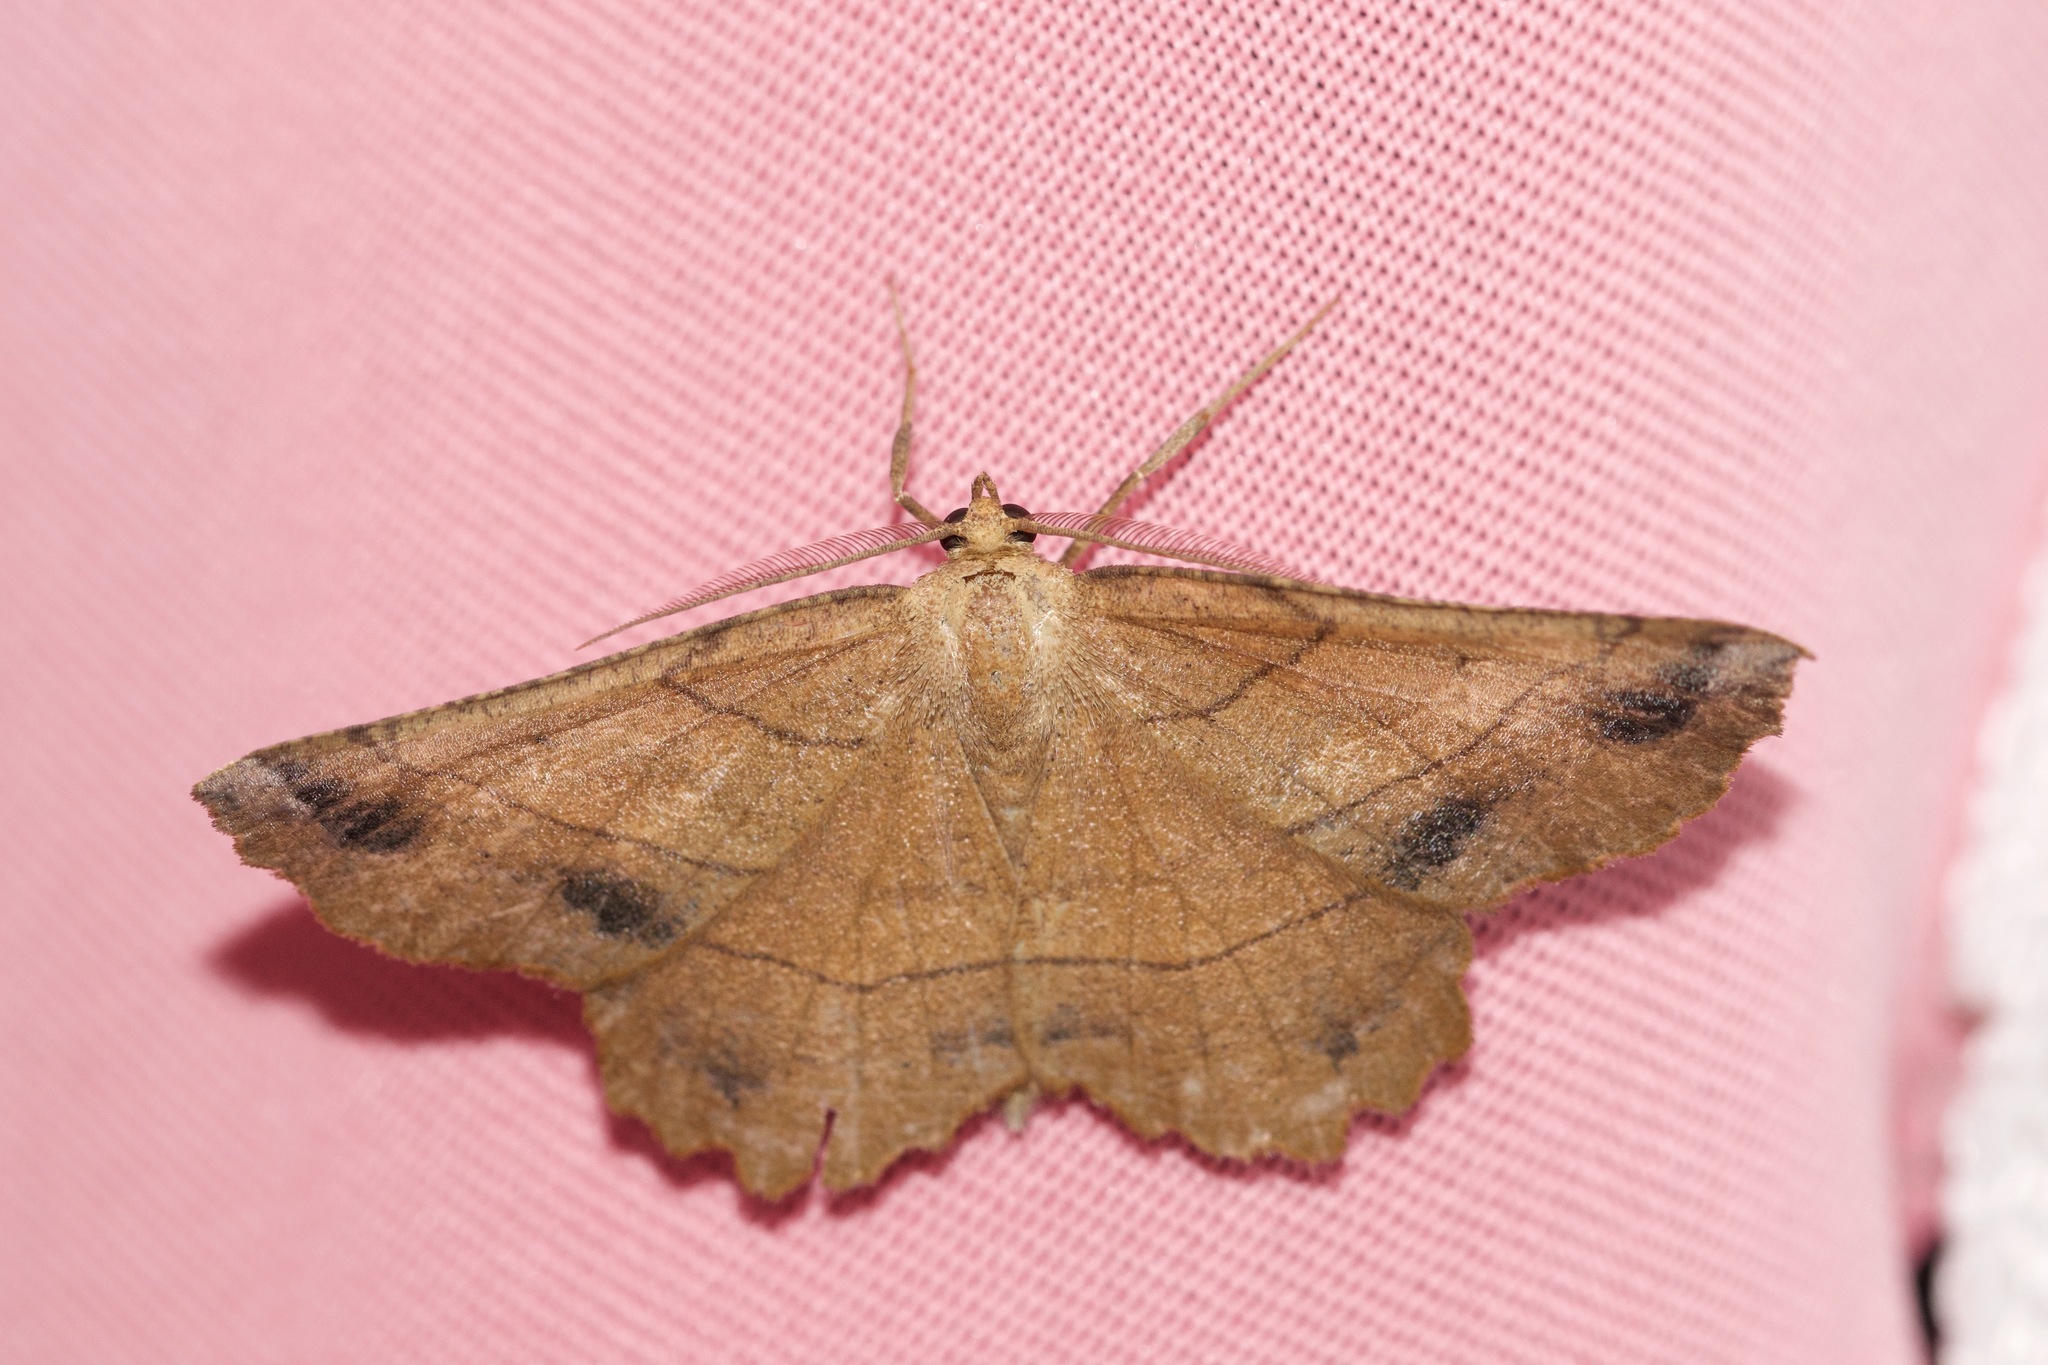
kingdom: Animalia
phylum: Arthropoda
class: Insecta
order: Lepidoptera
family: Geometridae
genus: Euchlaena
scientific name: Euchlaena johnsonaria
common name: Johnson's euchlaena
